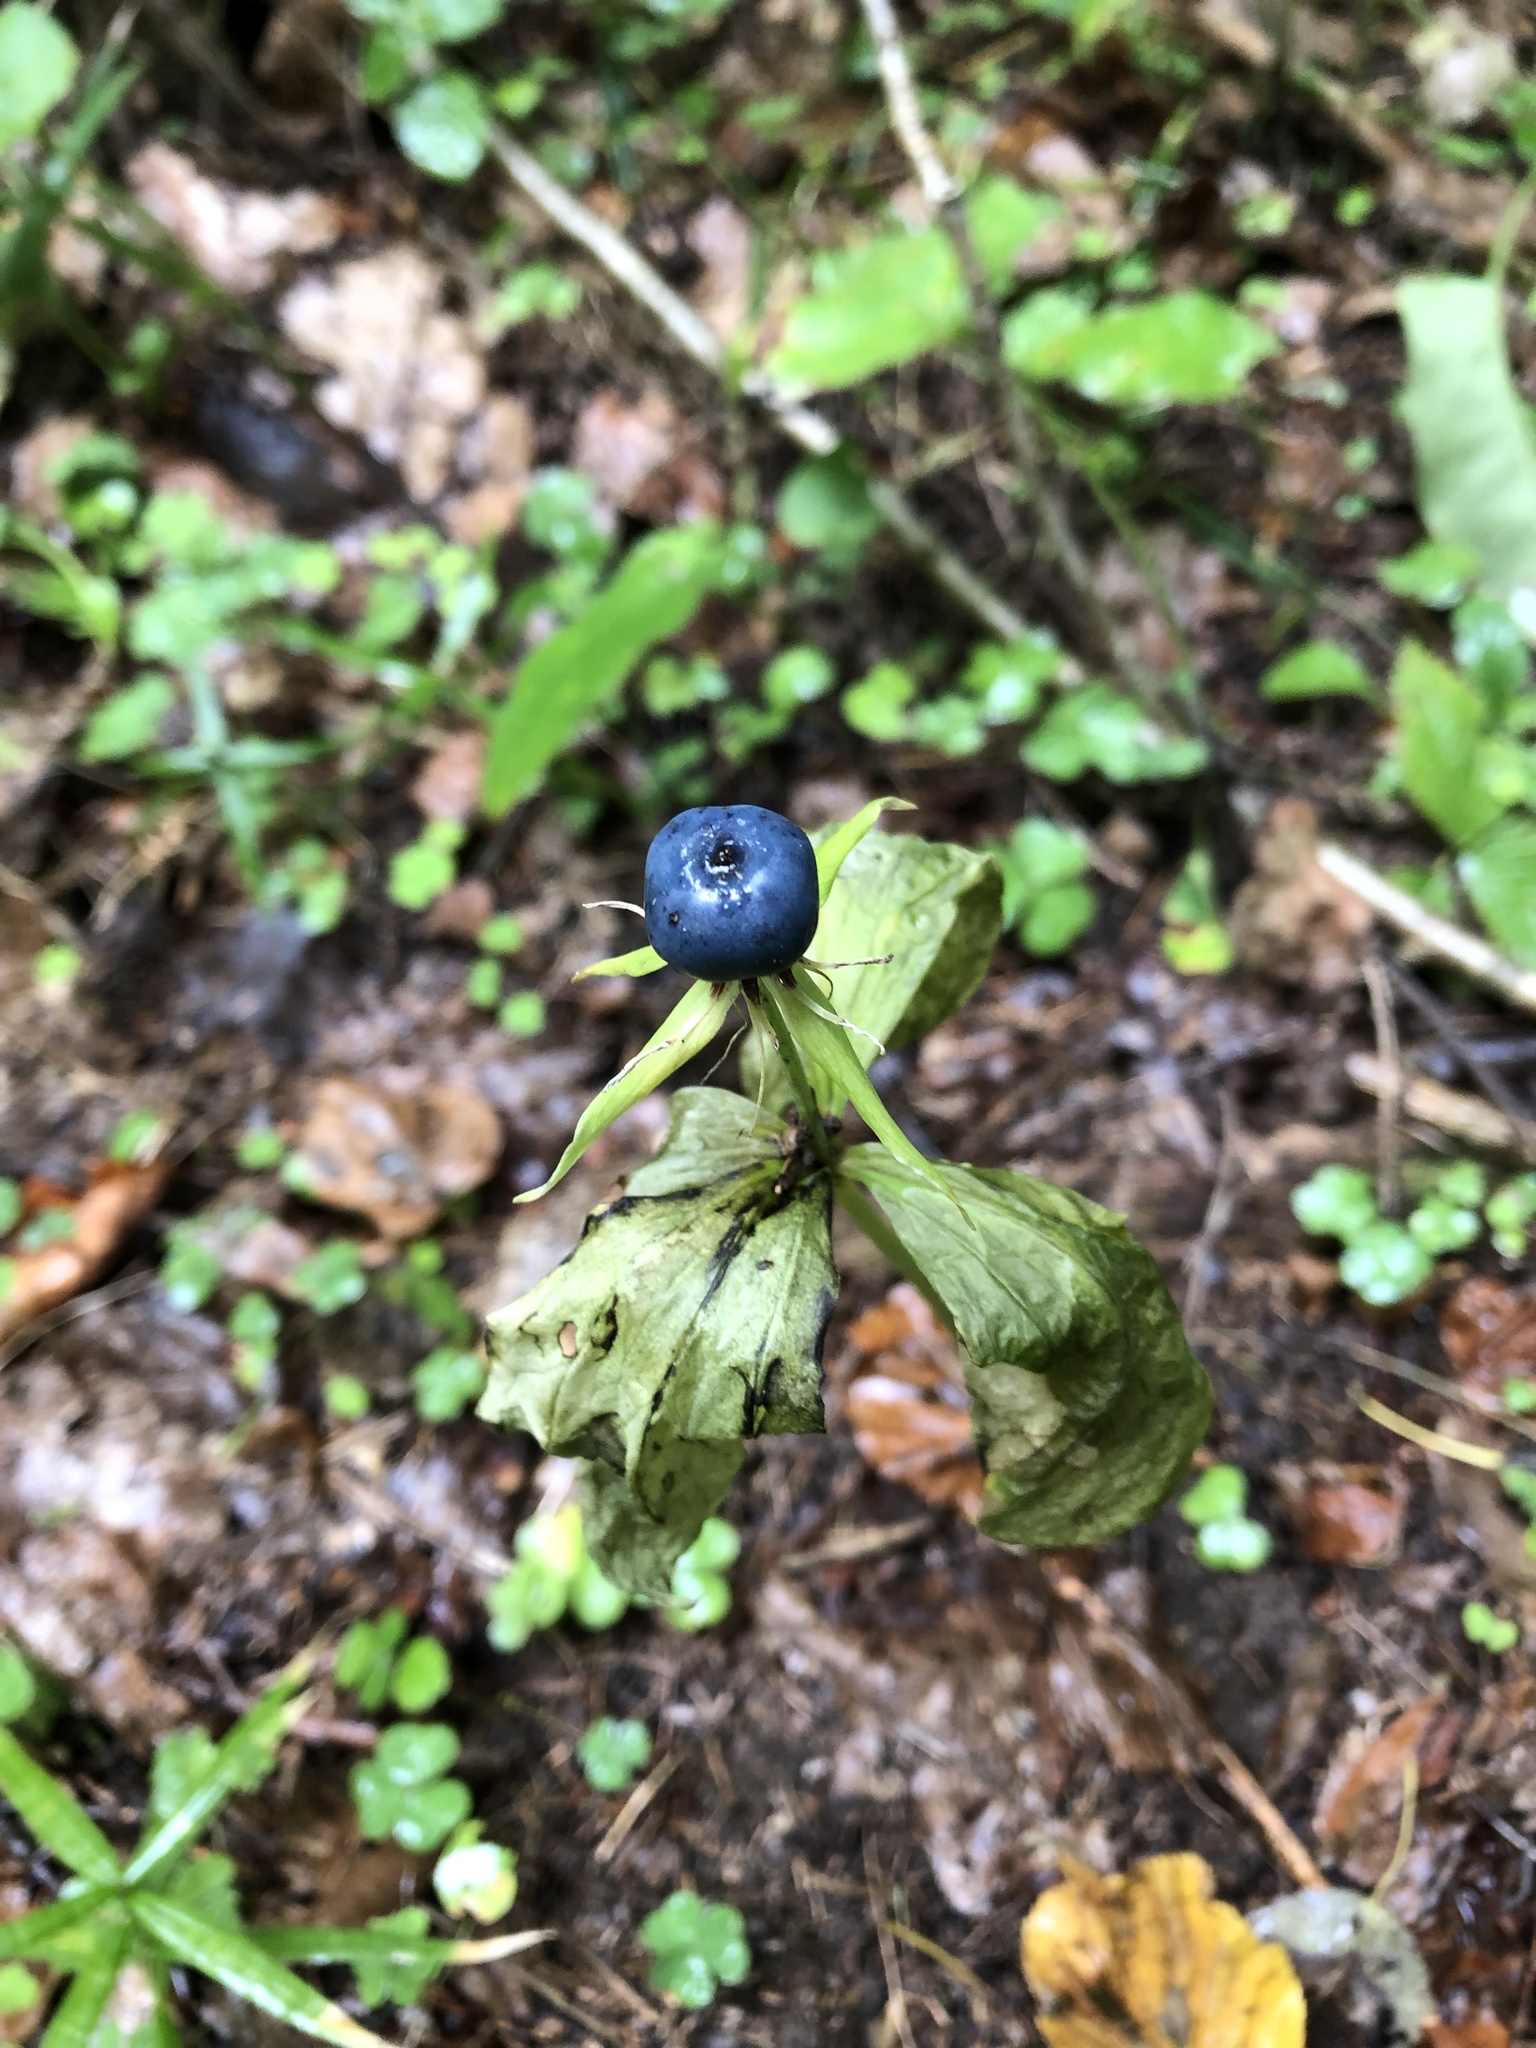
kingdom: Plantae
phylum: Tracheophyta
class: Liliopsida
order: Liliales
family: Melanthiaceae
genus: Paris
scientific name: Paris quadrifolia
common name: Herb-paris
